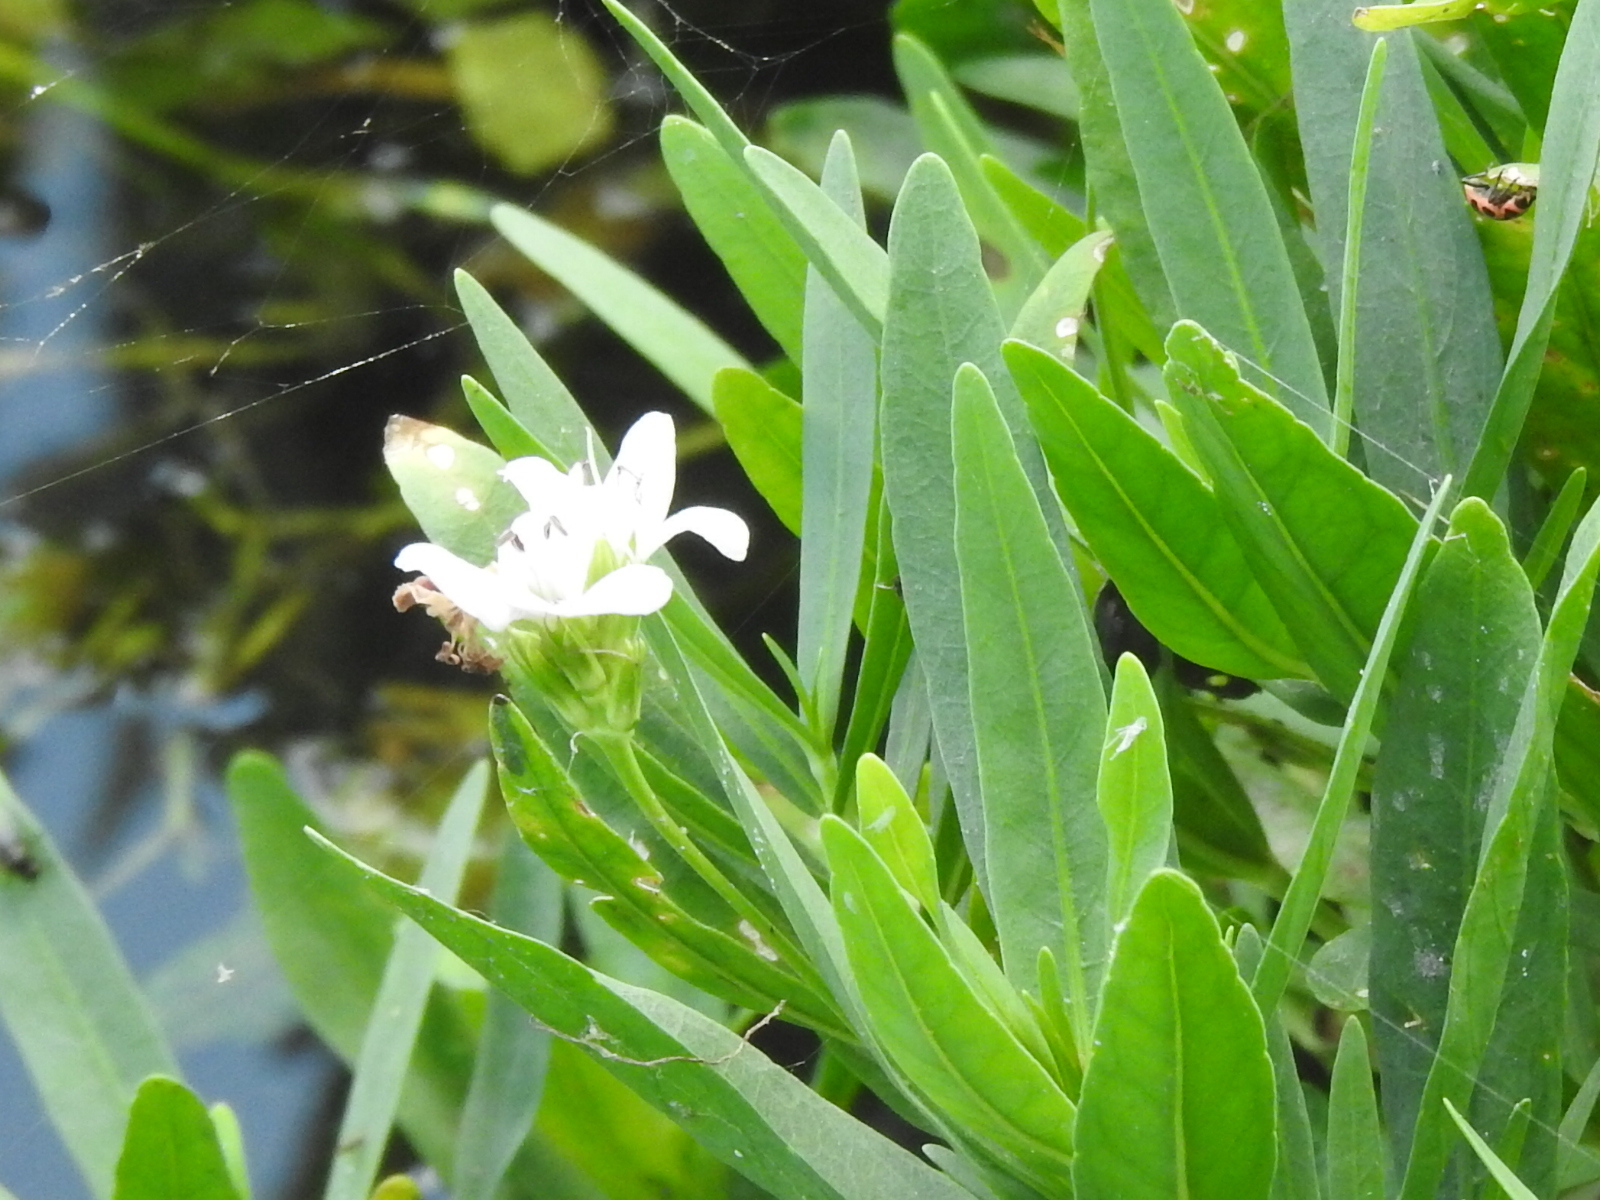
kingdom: Plantae
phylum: Tracheophyta
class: Magnoliopsida
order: Lamiales
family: Acanthaceae
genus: Dianthera
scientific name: Dianthera americana
